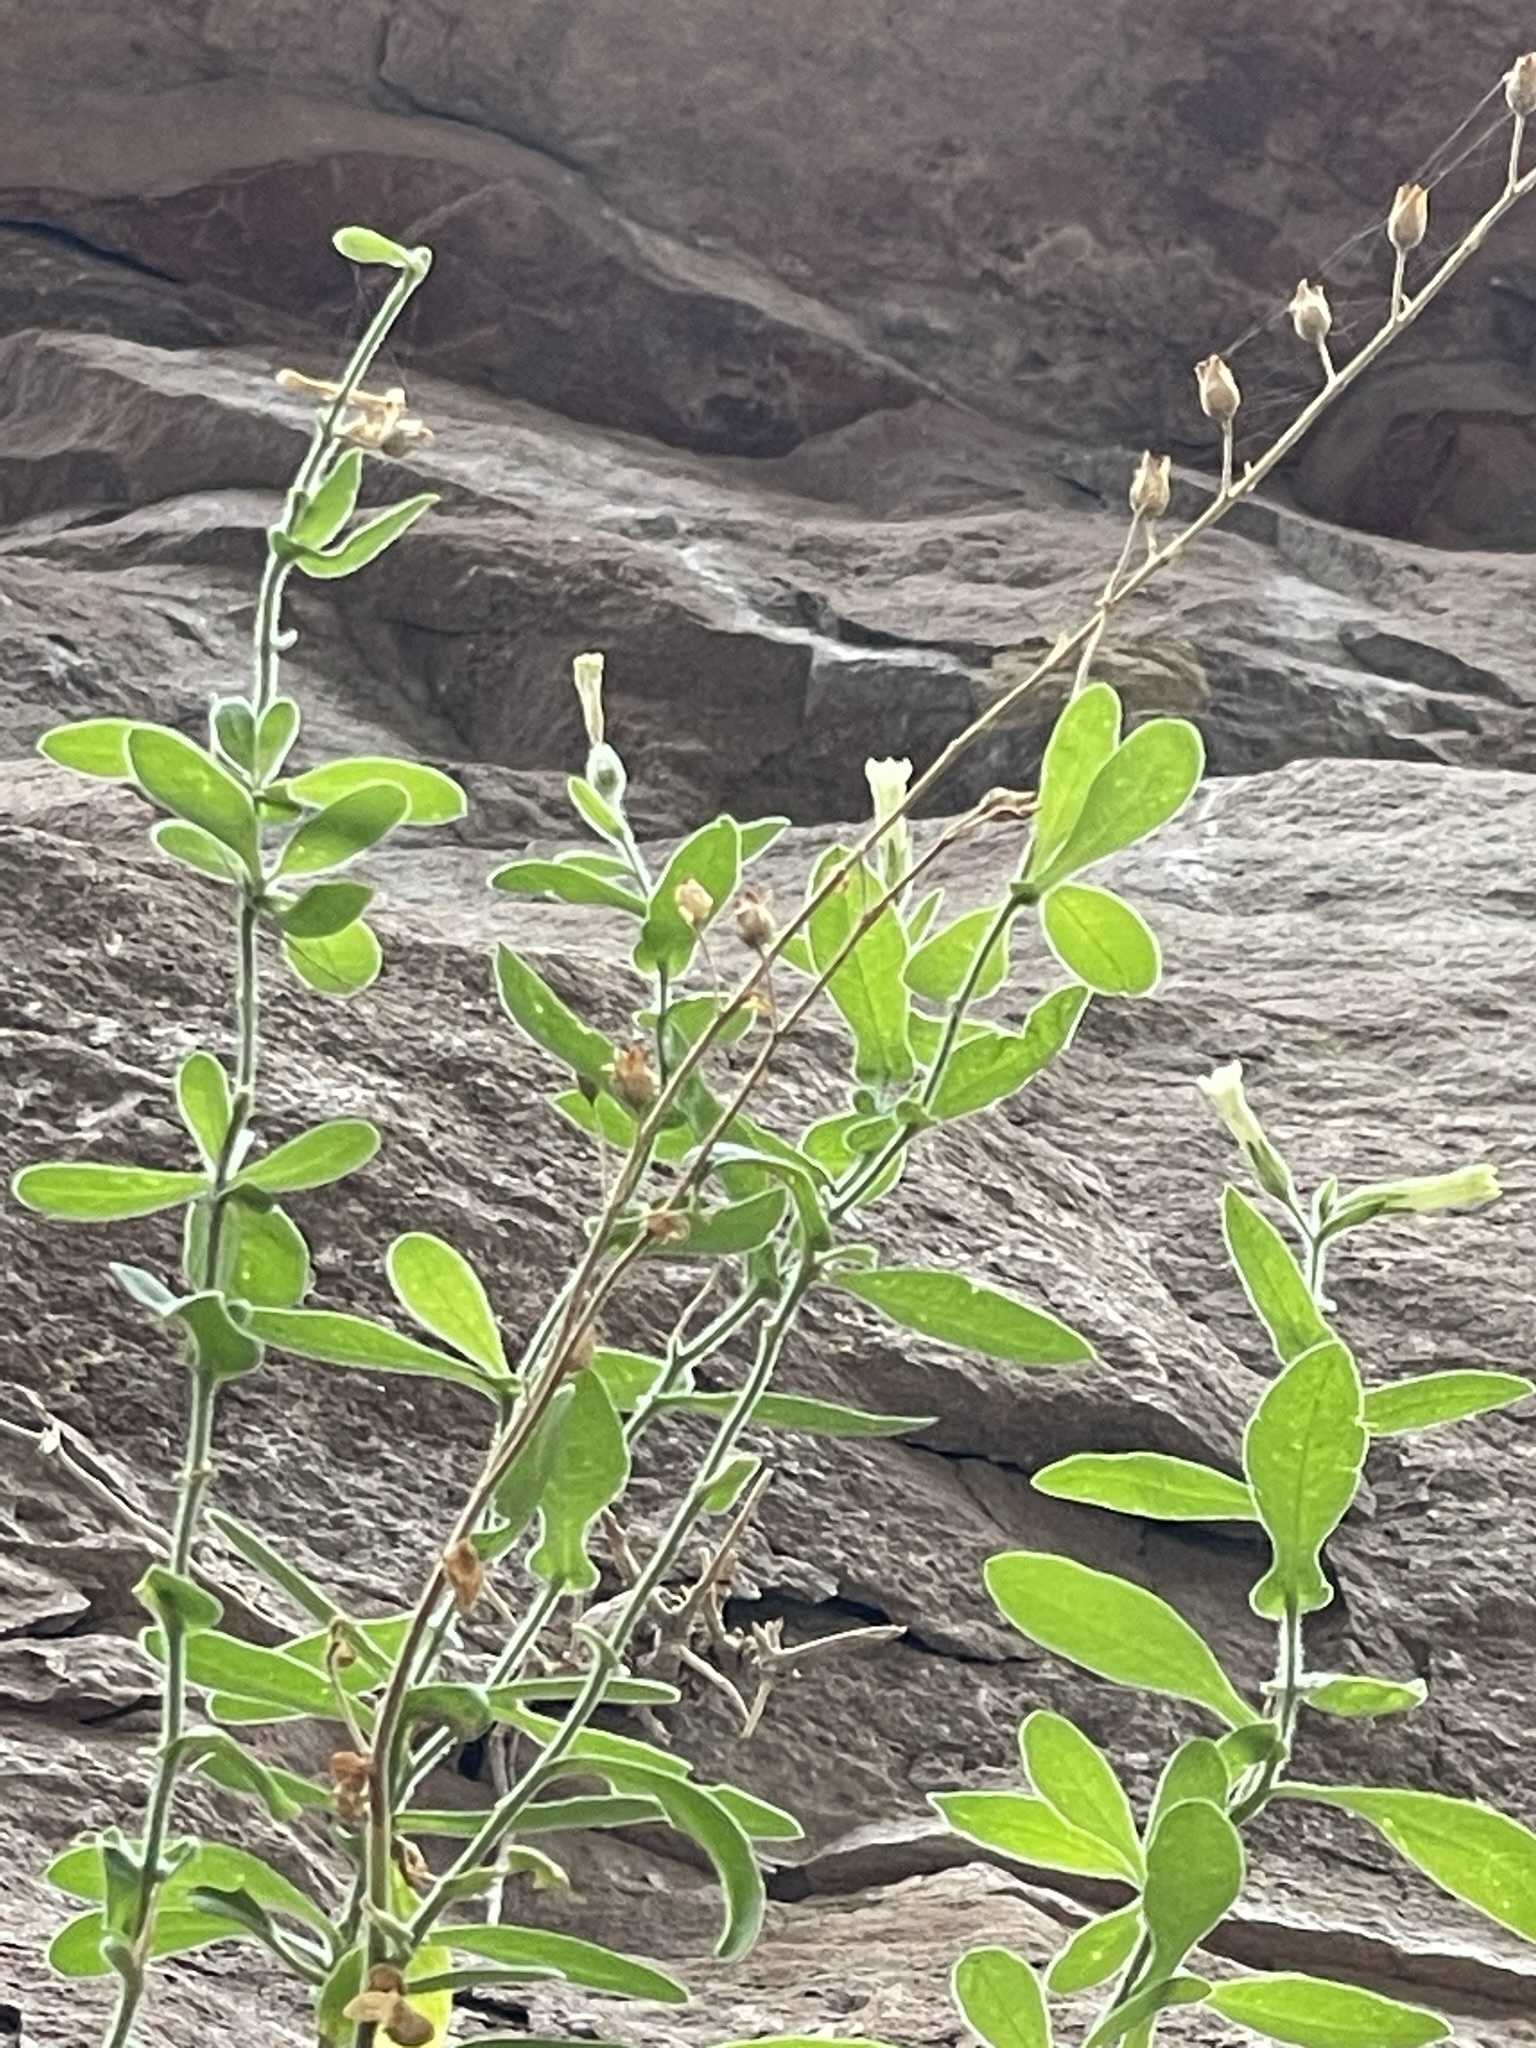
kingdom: Plantae
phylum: Tracheophyta
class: Magnoliopsida
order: Solanales
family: Solanaceae
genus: Nicotiana
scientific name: Nicotiana obtusifolia
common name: Desert tobacco
